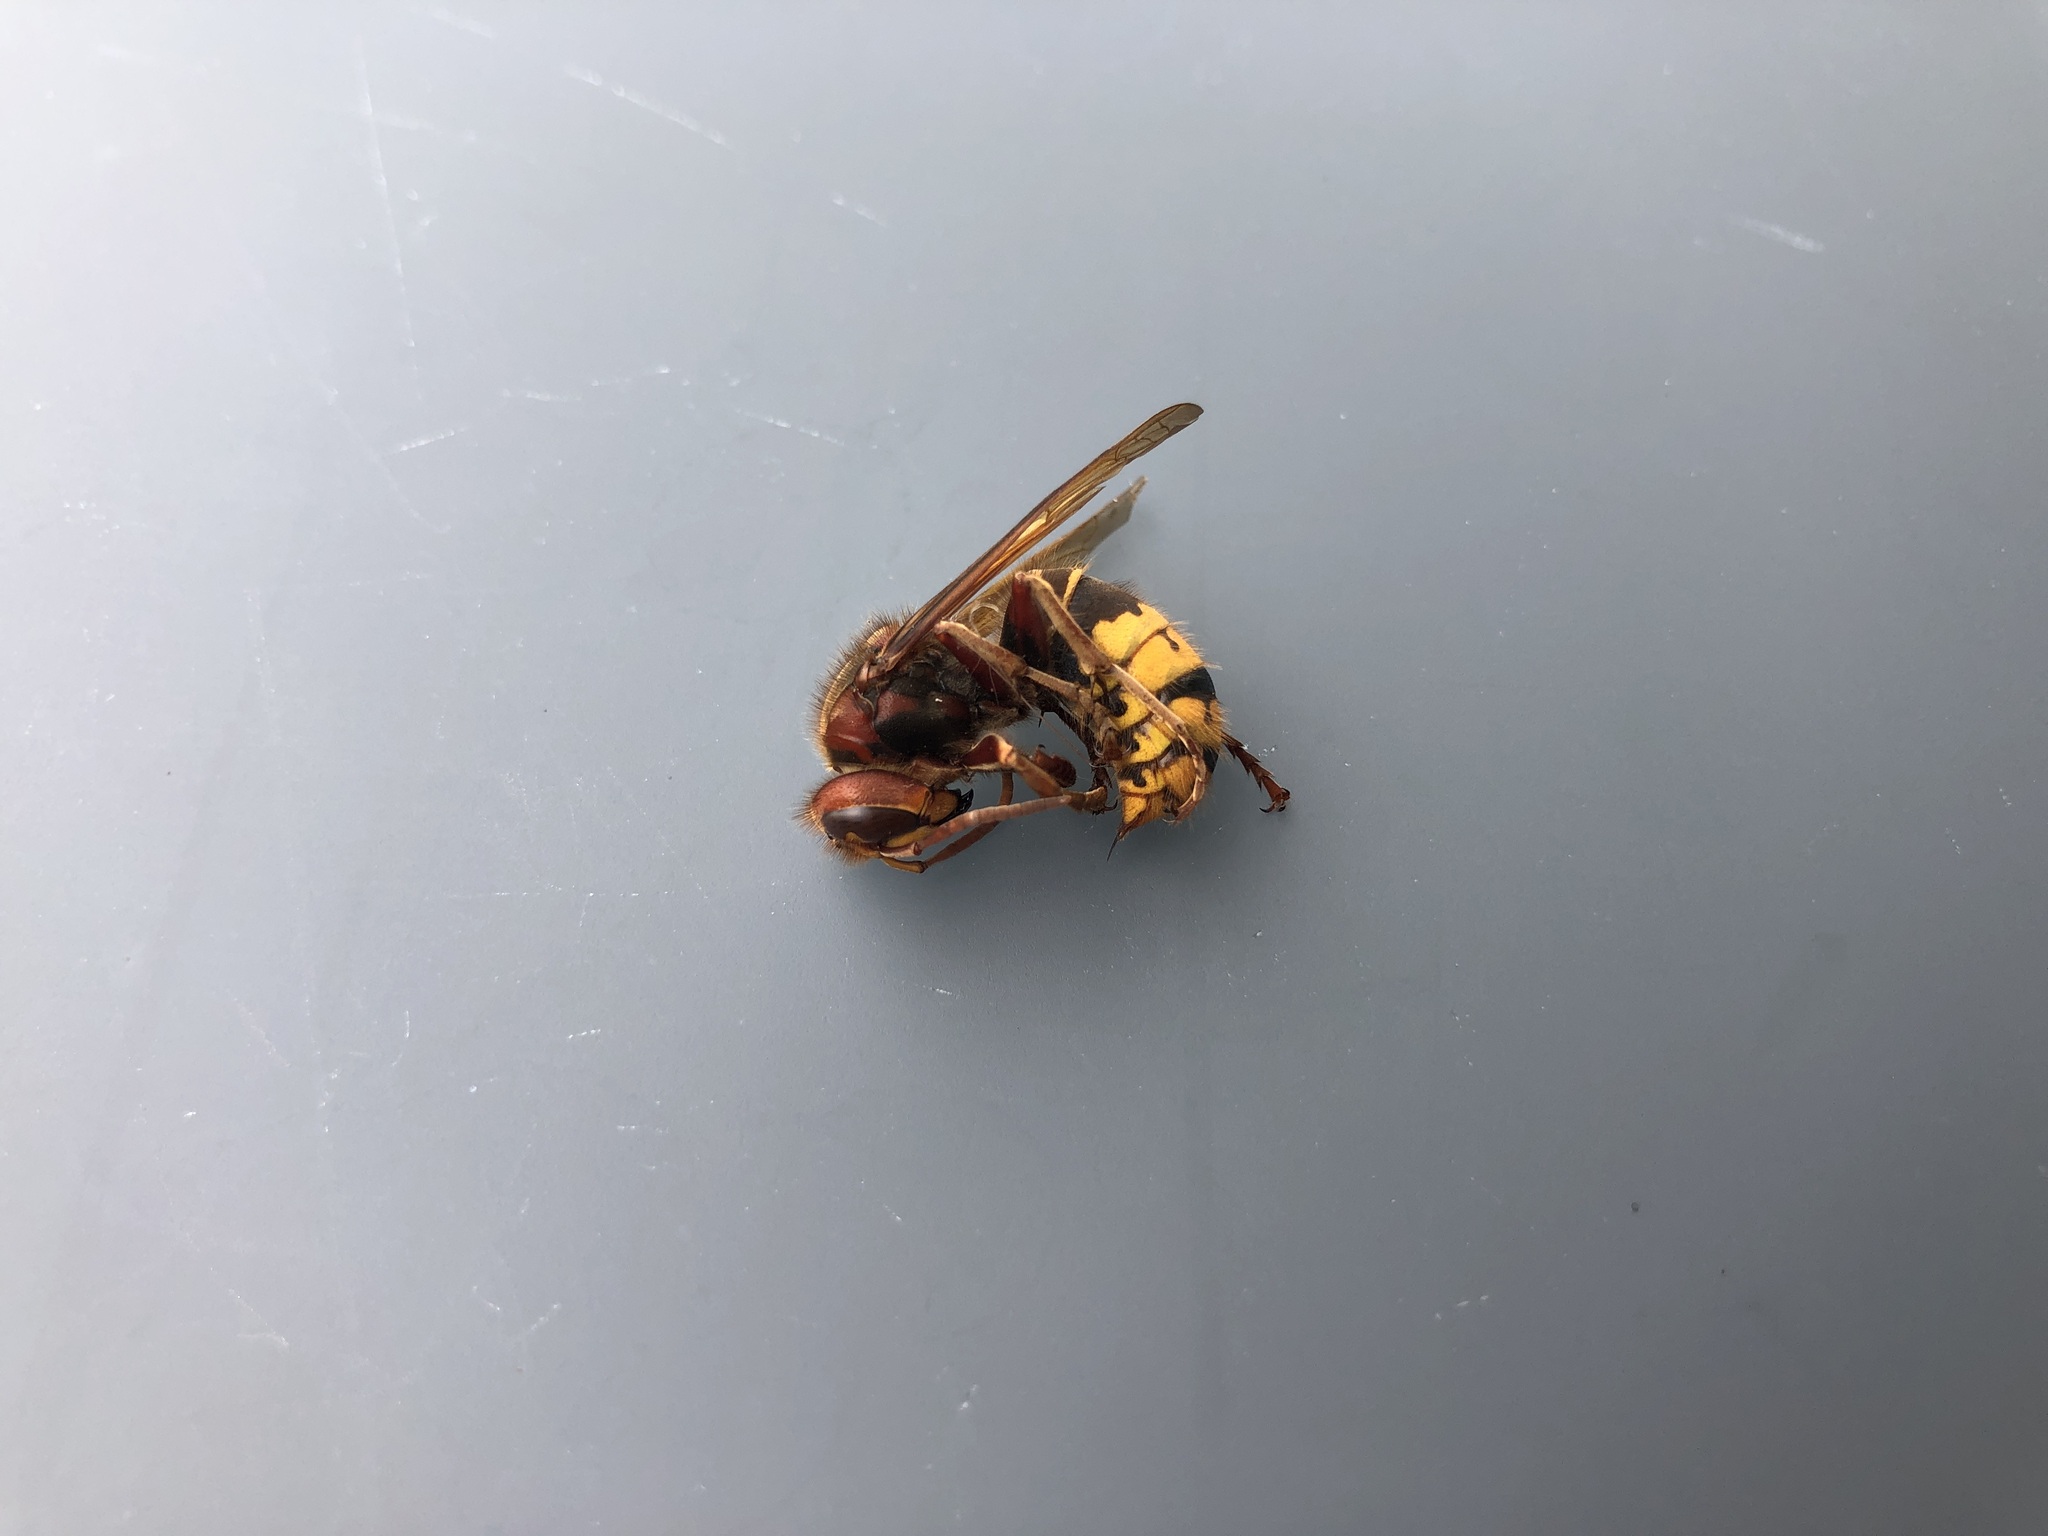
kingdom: Animalia
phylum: Arthropoda
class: Insecta
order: Hymenoptera
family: Vespidae
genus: Vespa
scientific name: Vespa crabro
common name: Hornet
